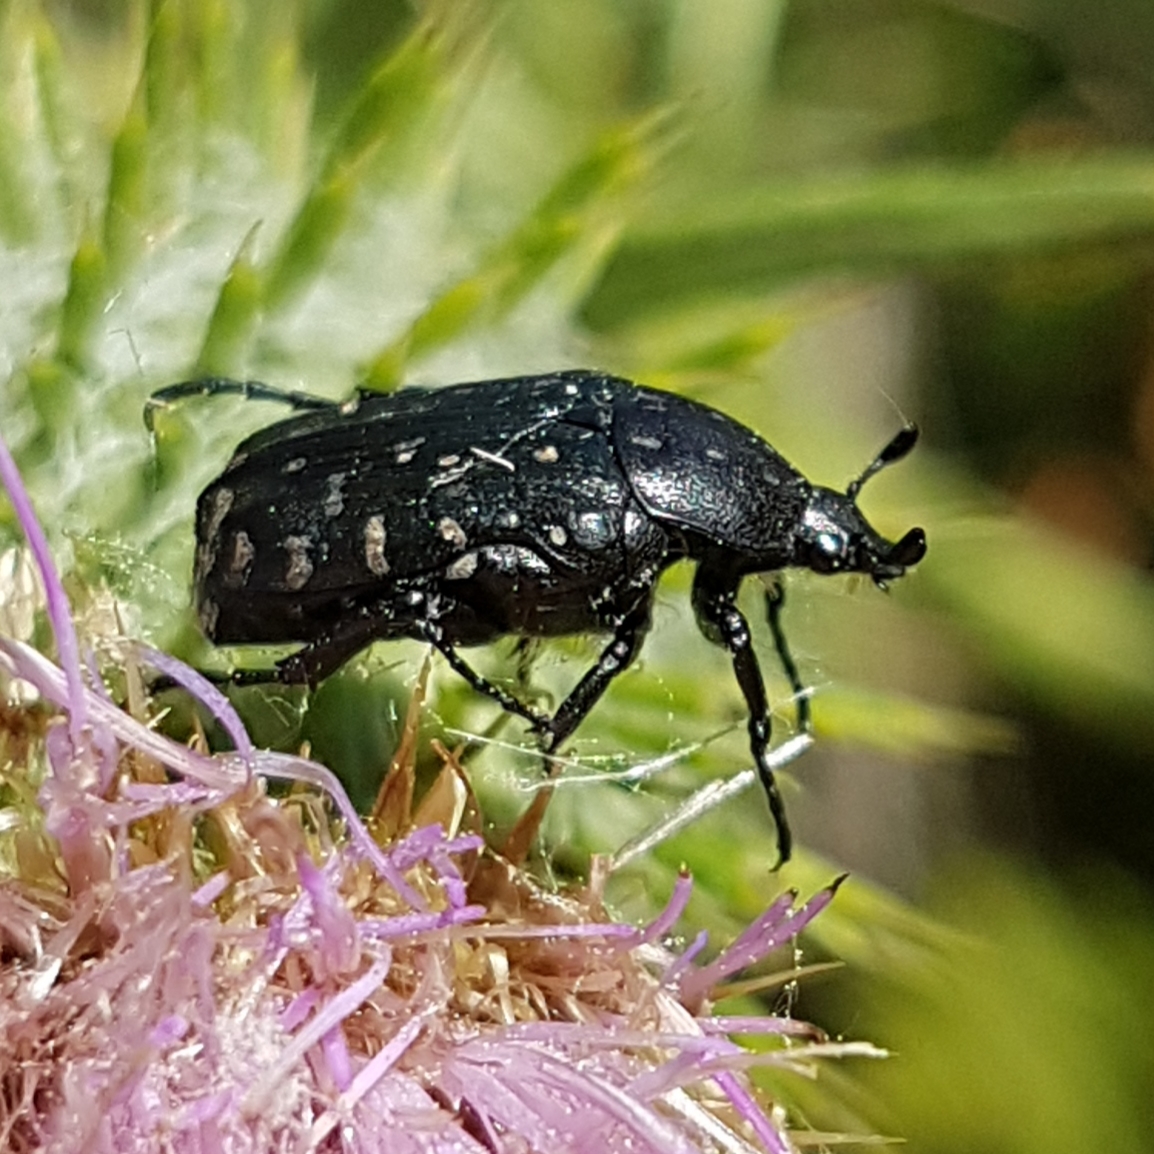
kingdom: Animalia
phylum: Arthropoda
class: Insecta
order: Coleoptera
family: Scarabaeidae
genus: Oxythyrea
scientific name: Oxythyrea funesta
